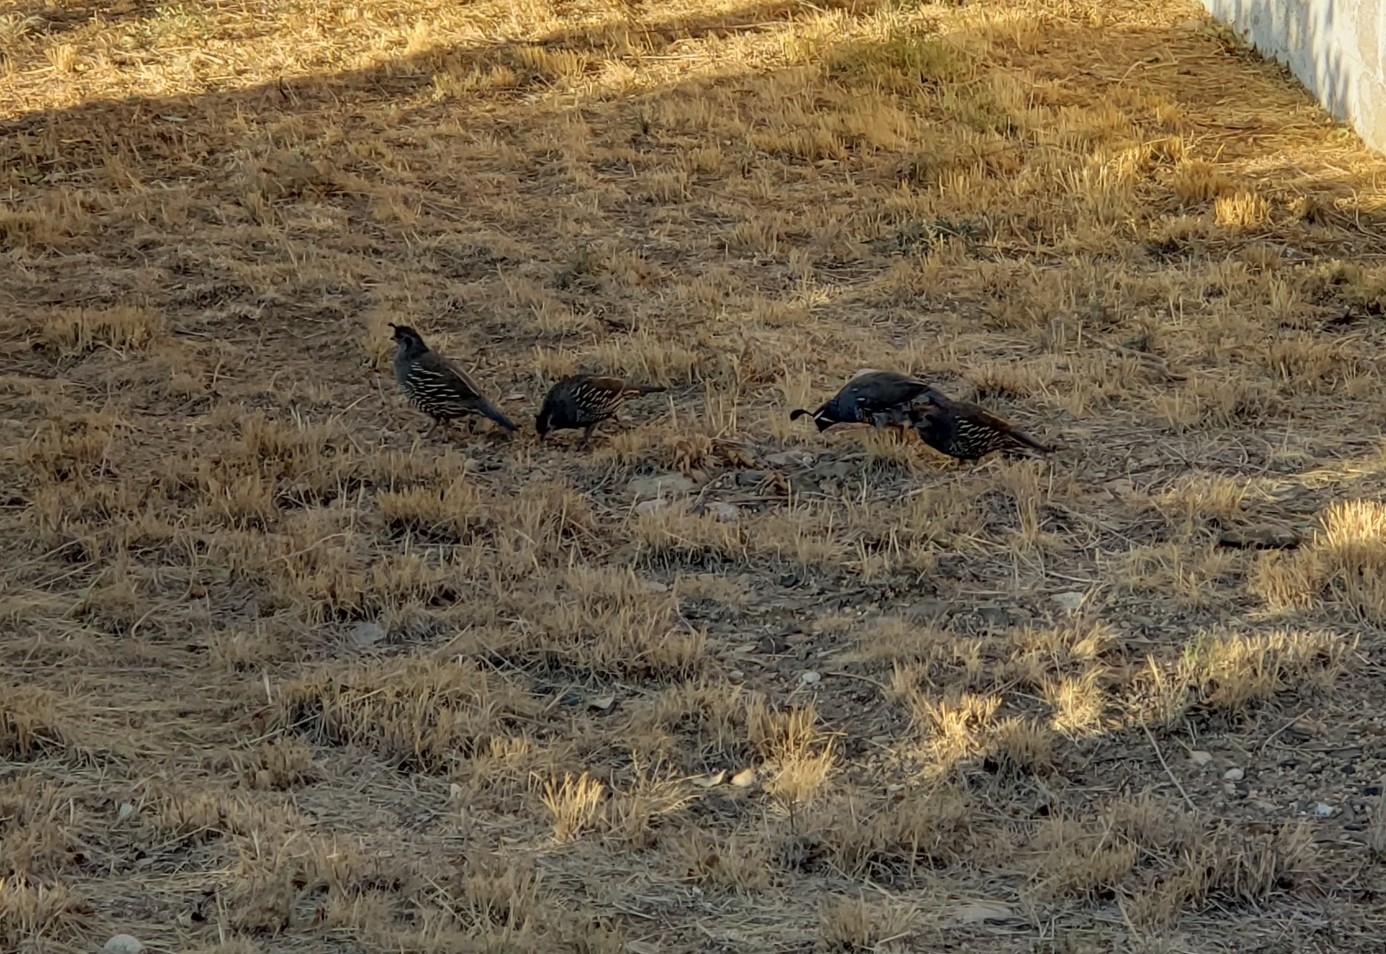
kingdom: Animalia
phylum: Chordata
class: Aves
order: Galliformes
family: Odontophoridae
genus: Callipepla
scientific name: Callipepla californica
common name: California quail
